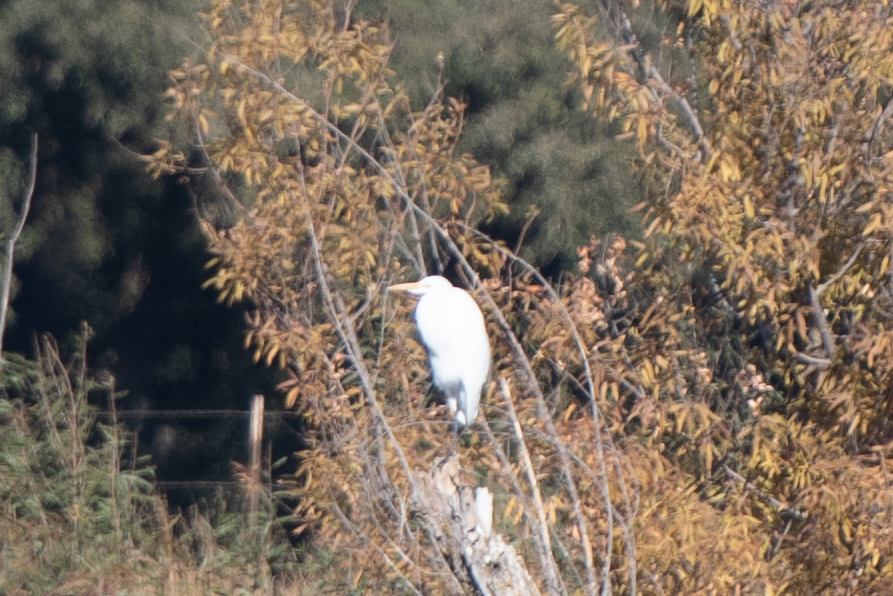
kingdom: Animalia
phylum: Chordata
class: Aves
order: Pelecaniformes
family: Ardeidae
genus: Ardea
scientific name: Ardea alba
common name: Great egret
